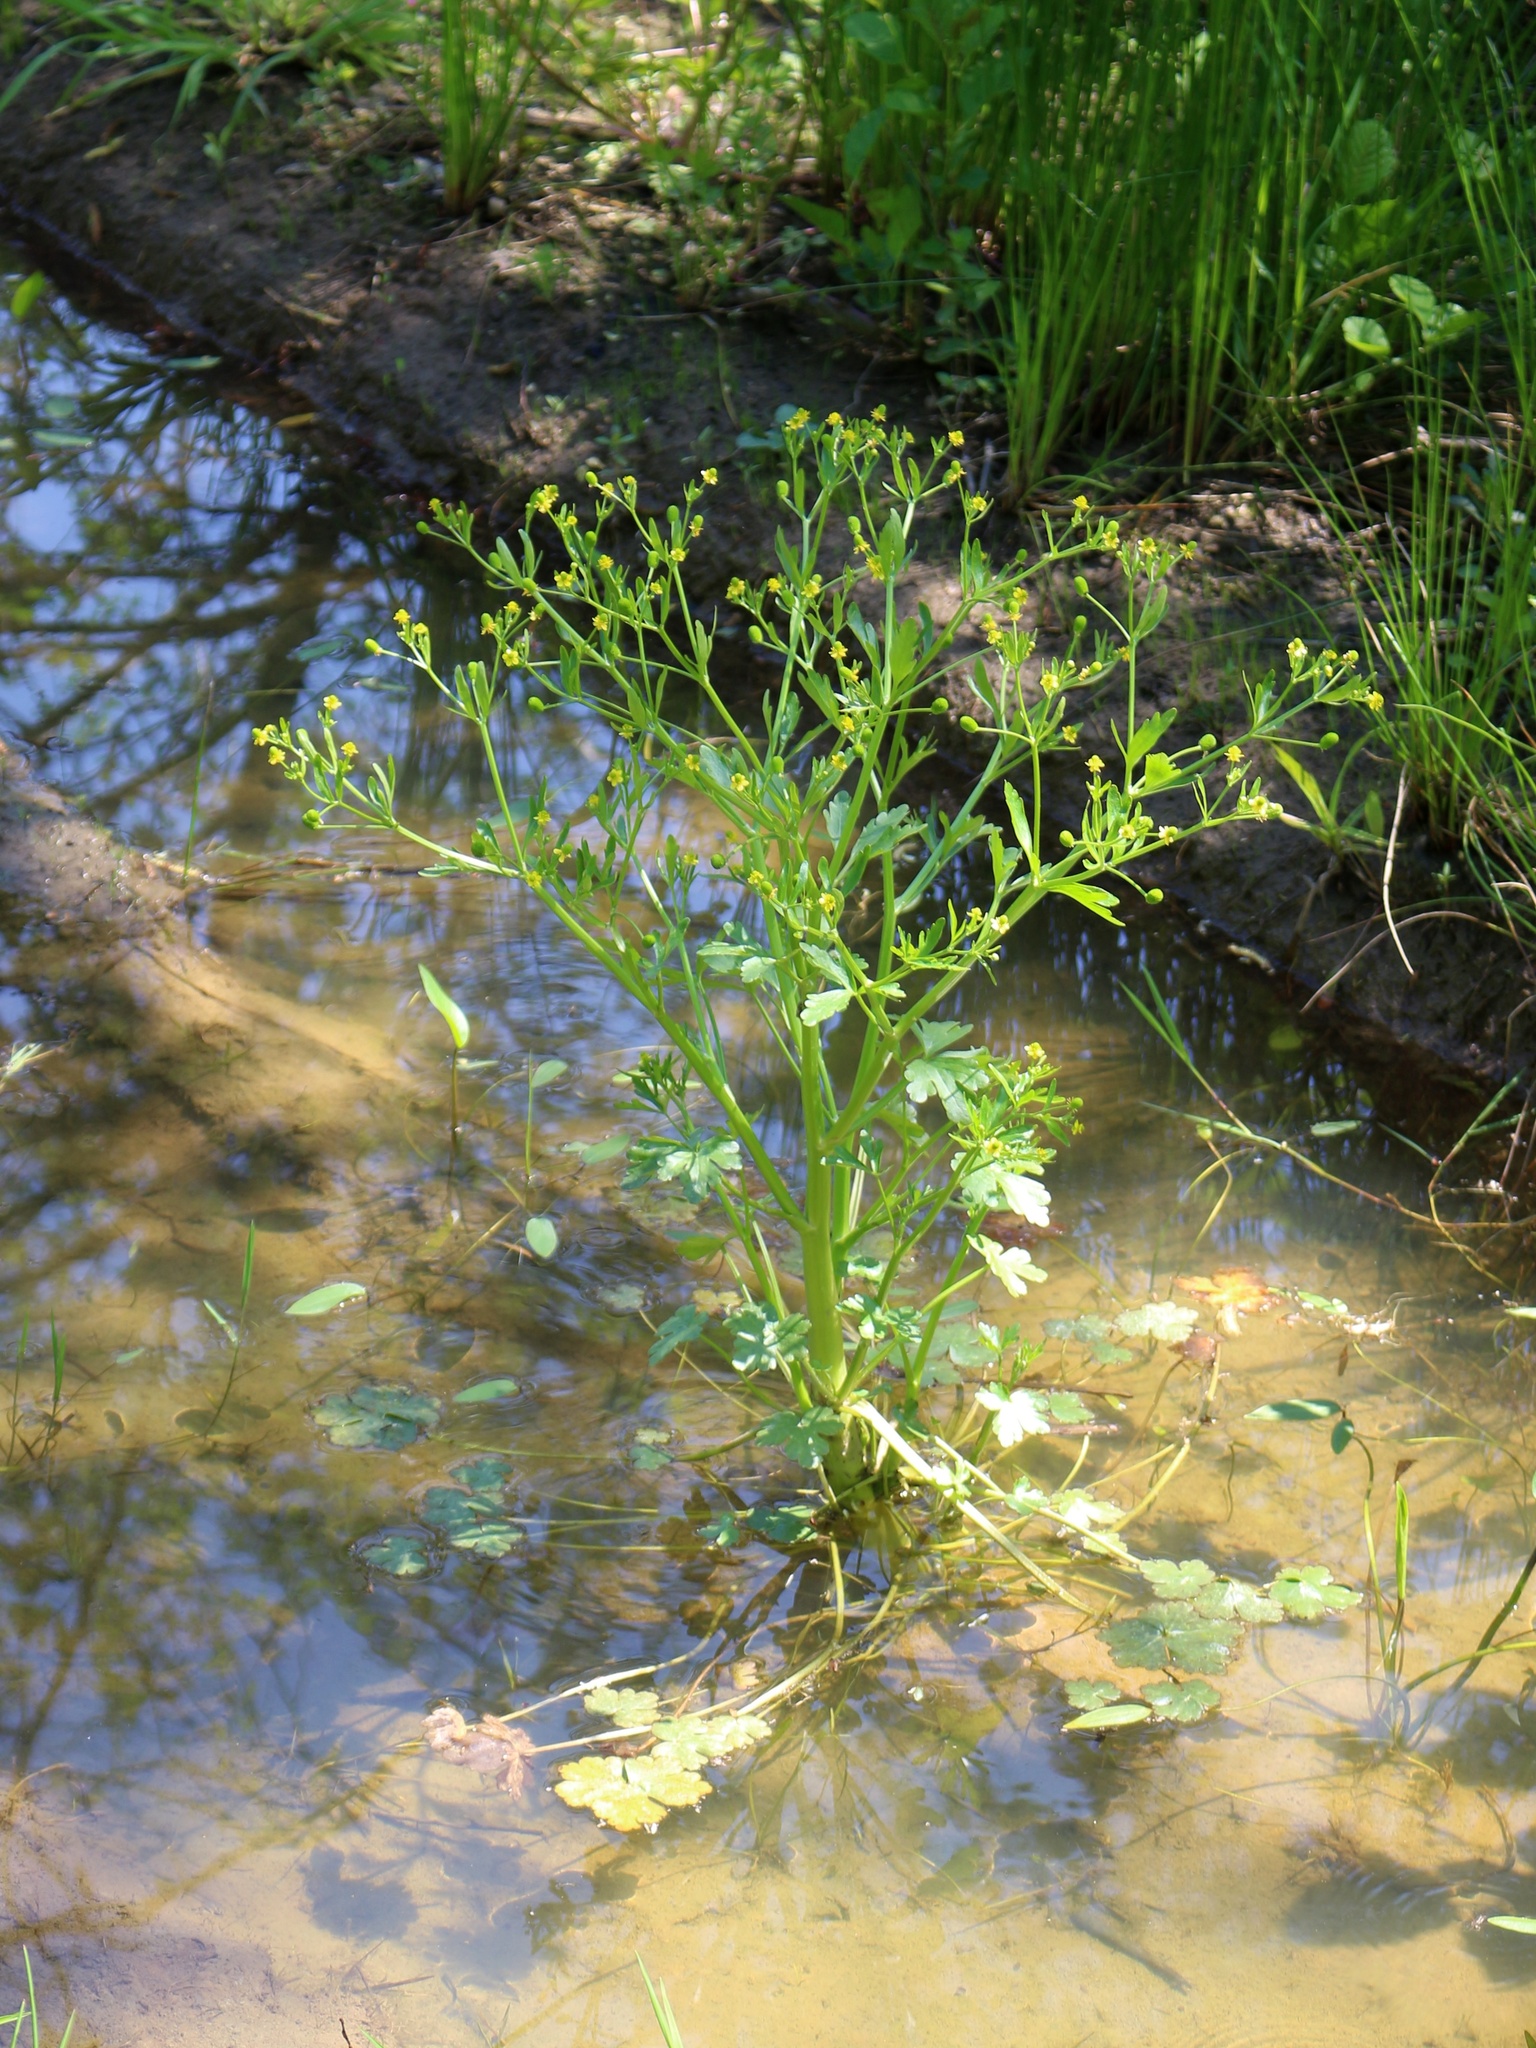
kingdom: Plantae
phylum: Tracheophyta
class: Magnoliopsida
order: Ranunculales
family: Ranunculaceae
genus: Ranunculus
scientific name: Ranunculus sceleratus
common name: Celery-leaved buttercup
